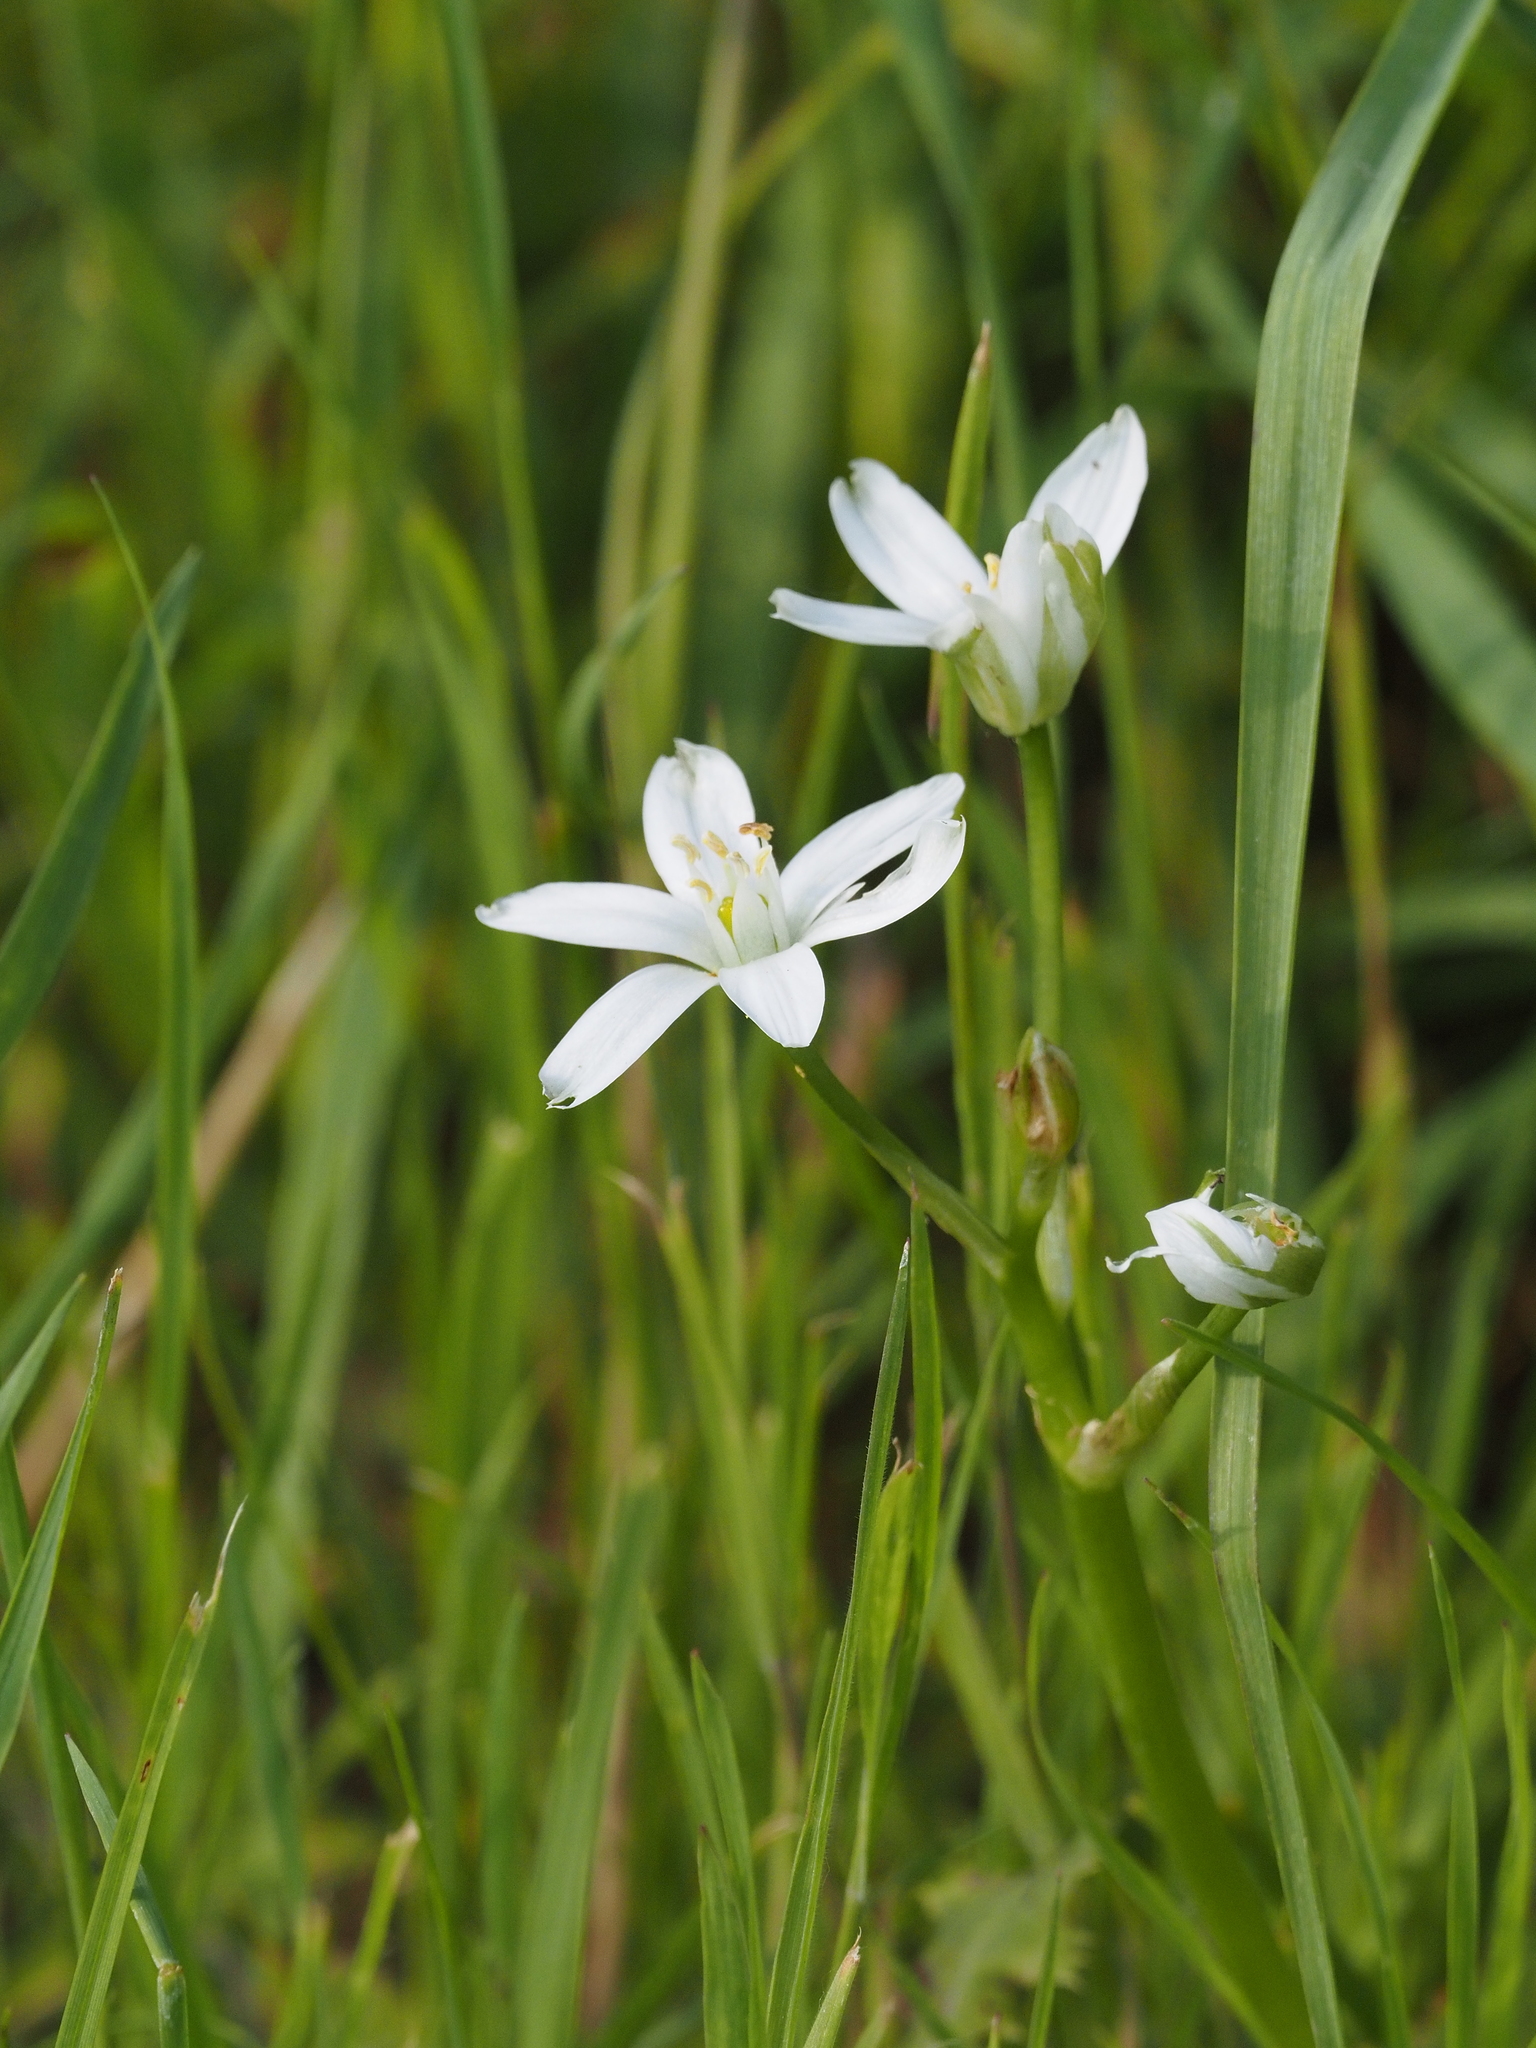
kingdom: Plantae
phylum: Tracheophyta
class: Liliopsida
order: Asparagales
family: Asparagaceae
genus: Ornithogalum
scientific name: Ornithogalum umbellatum
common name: Garden star-of-bethlehem
